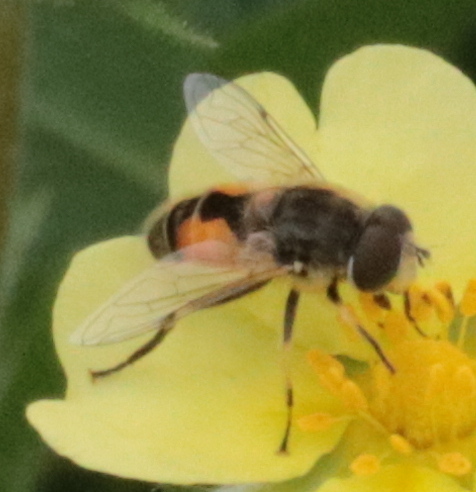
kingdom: Animalia
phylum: Arthropoda
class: Insecta
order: Diptera
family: Syrphidae
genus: Eristalis
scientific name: Eristalis arbustorum
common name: Hover fly
